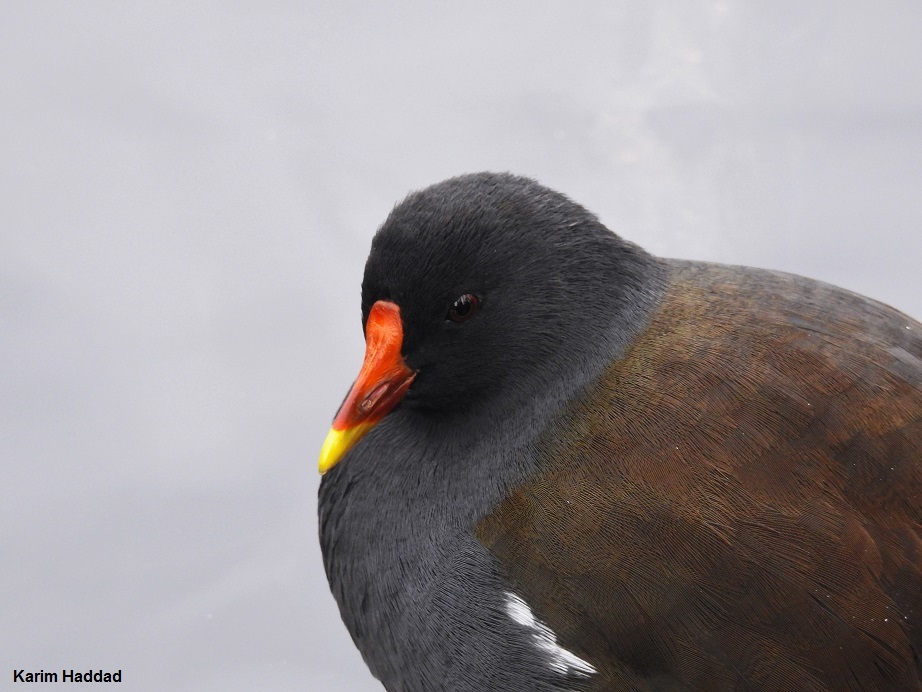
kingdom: Animalia
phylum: Chordata
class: Aves
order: Gruiformes
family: Rallidae
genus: Gallinula
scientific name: Gallinula chloropus
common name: Common moorhen
